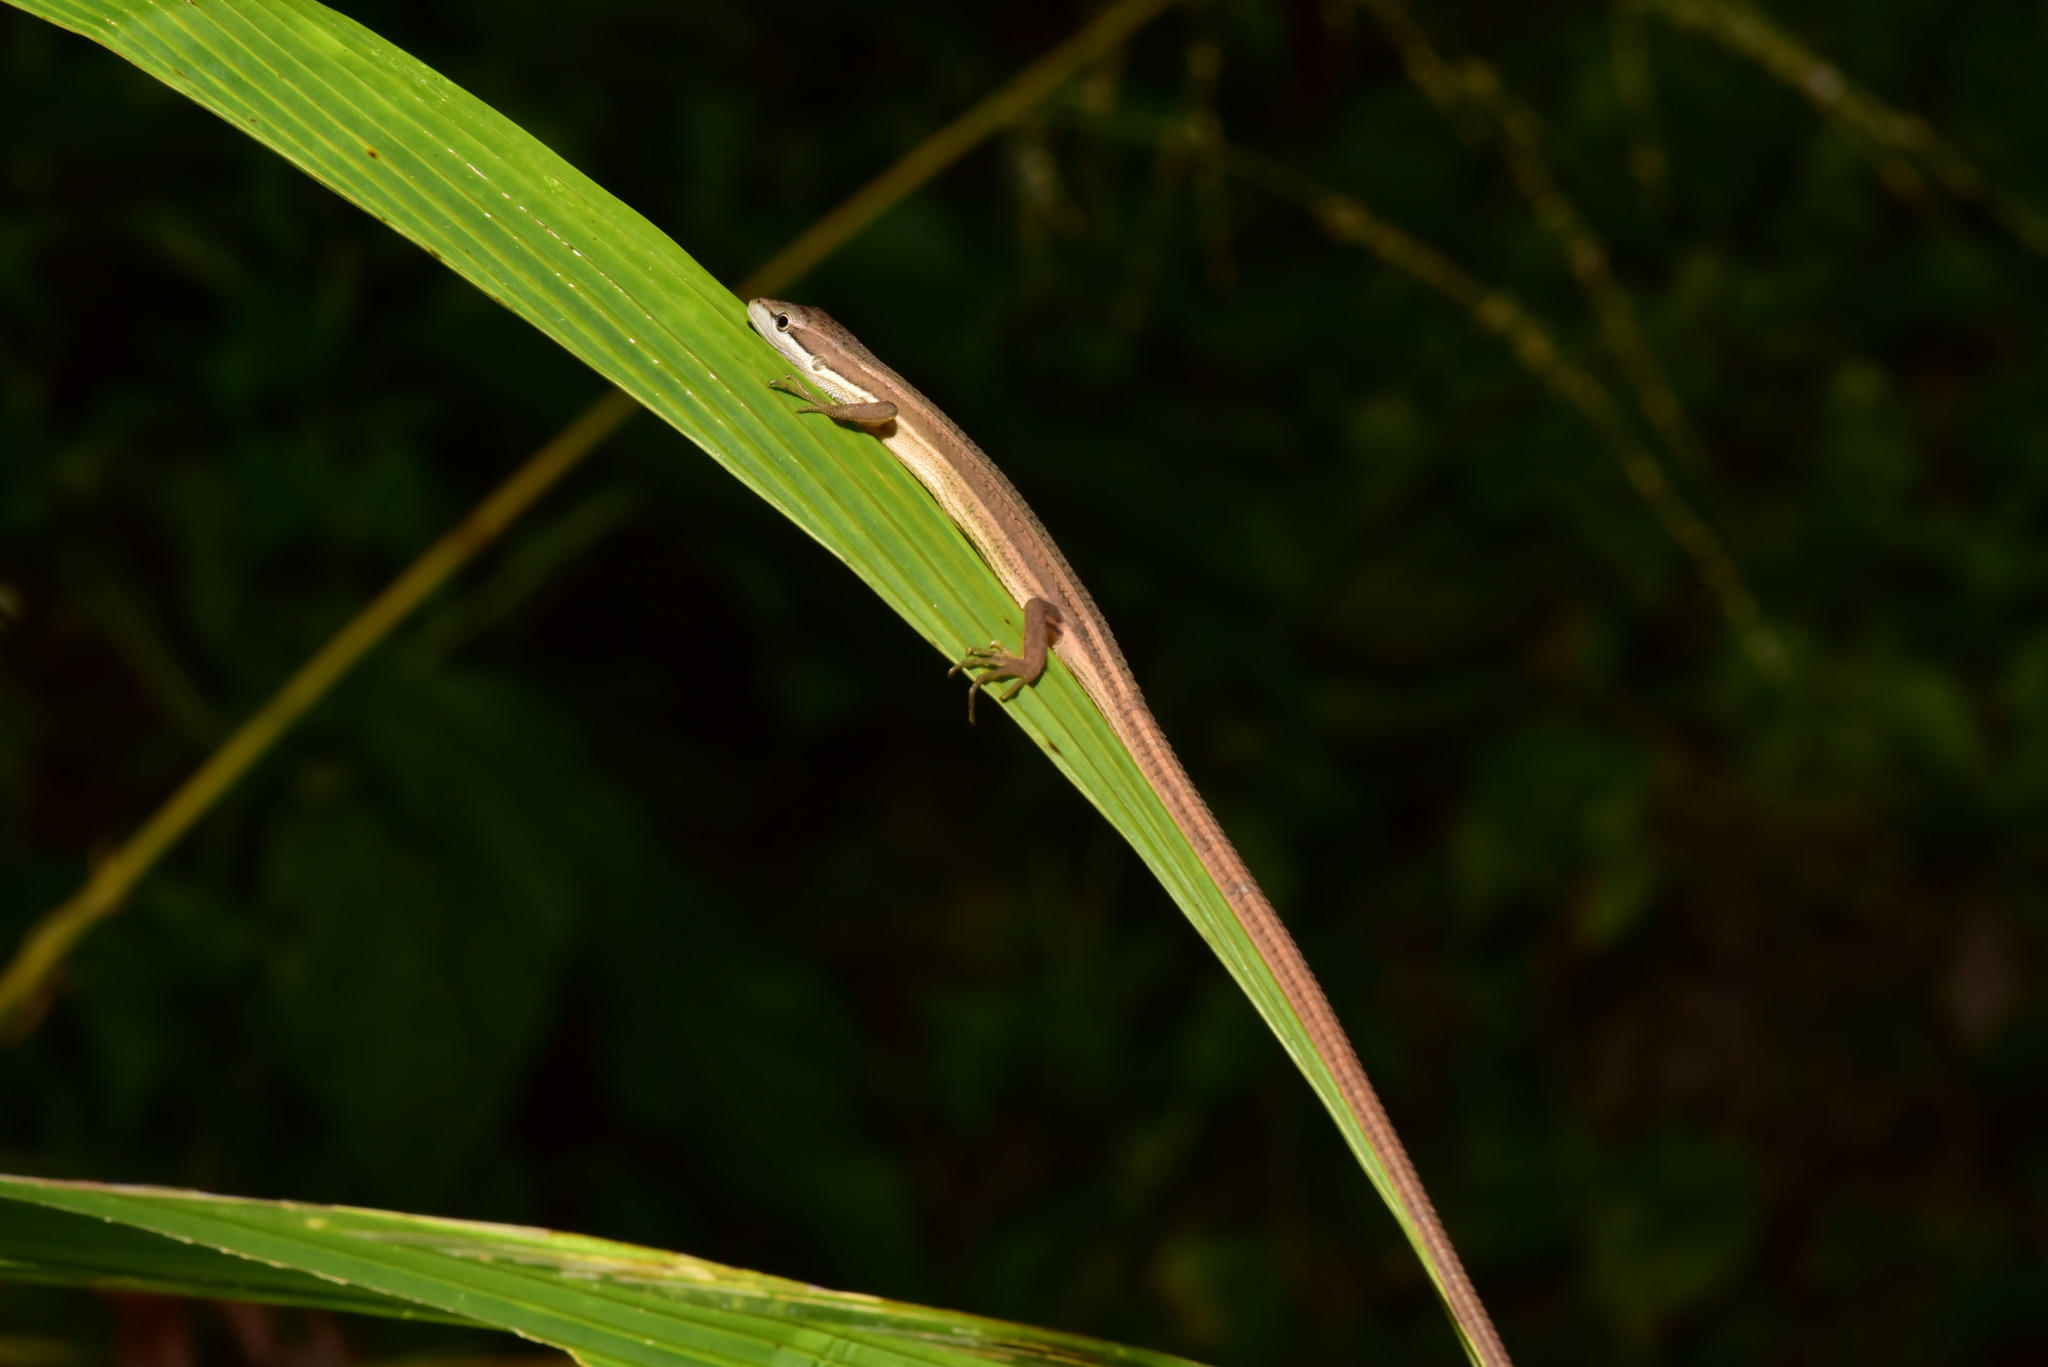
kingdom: Animalia
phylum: Chordata
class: Squamata
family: Lacertidae
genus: Takydromus
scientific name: Takydromus luyeanus
